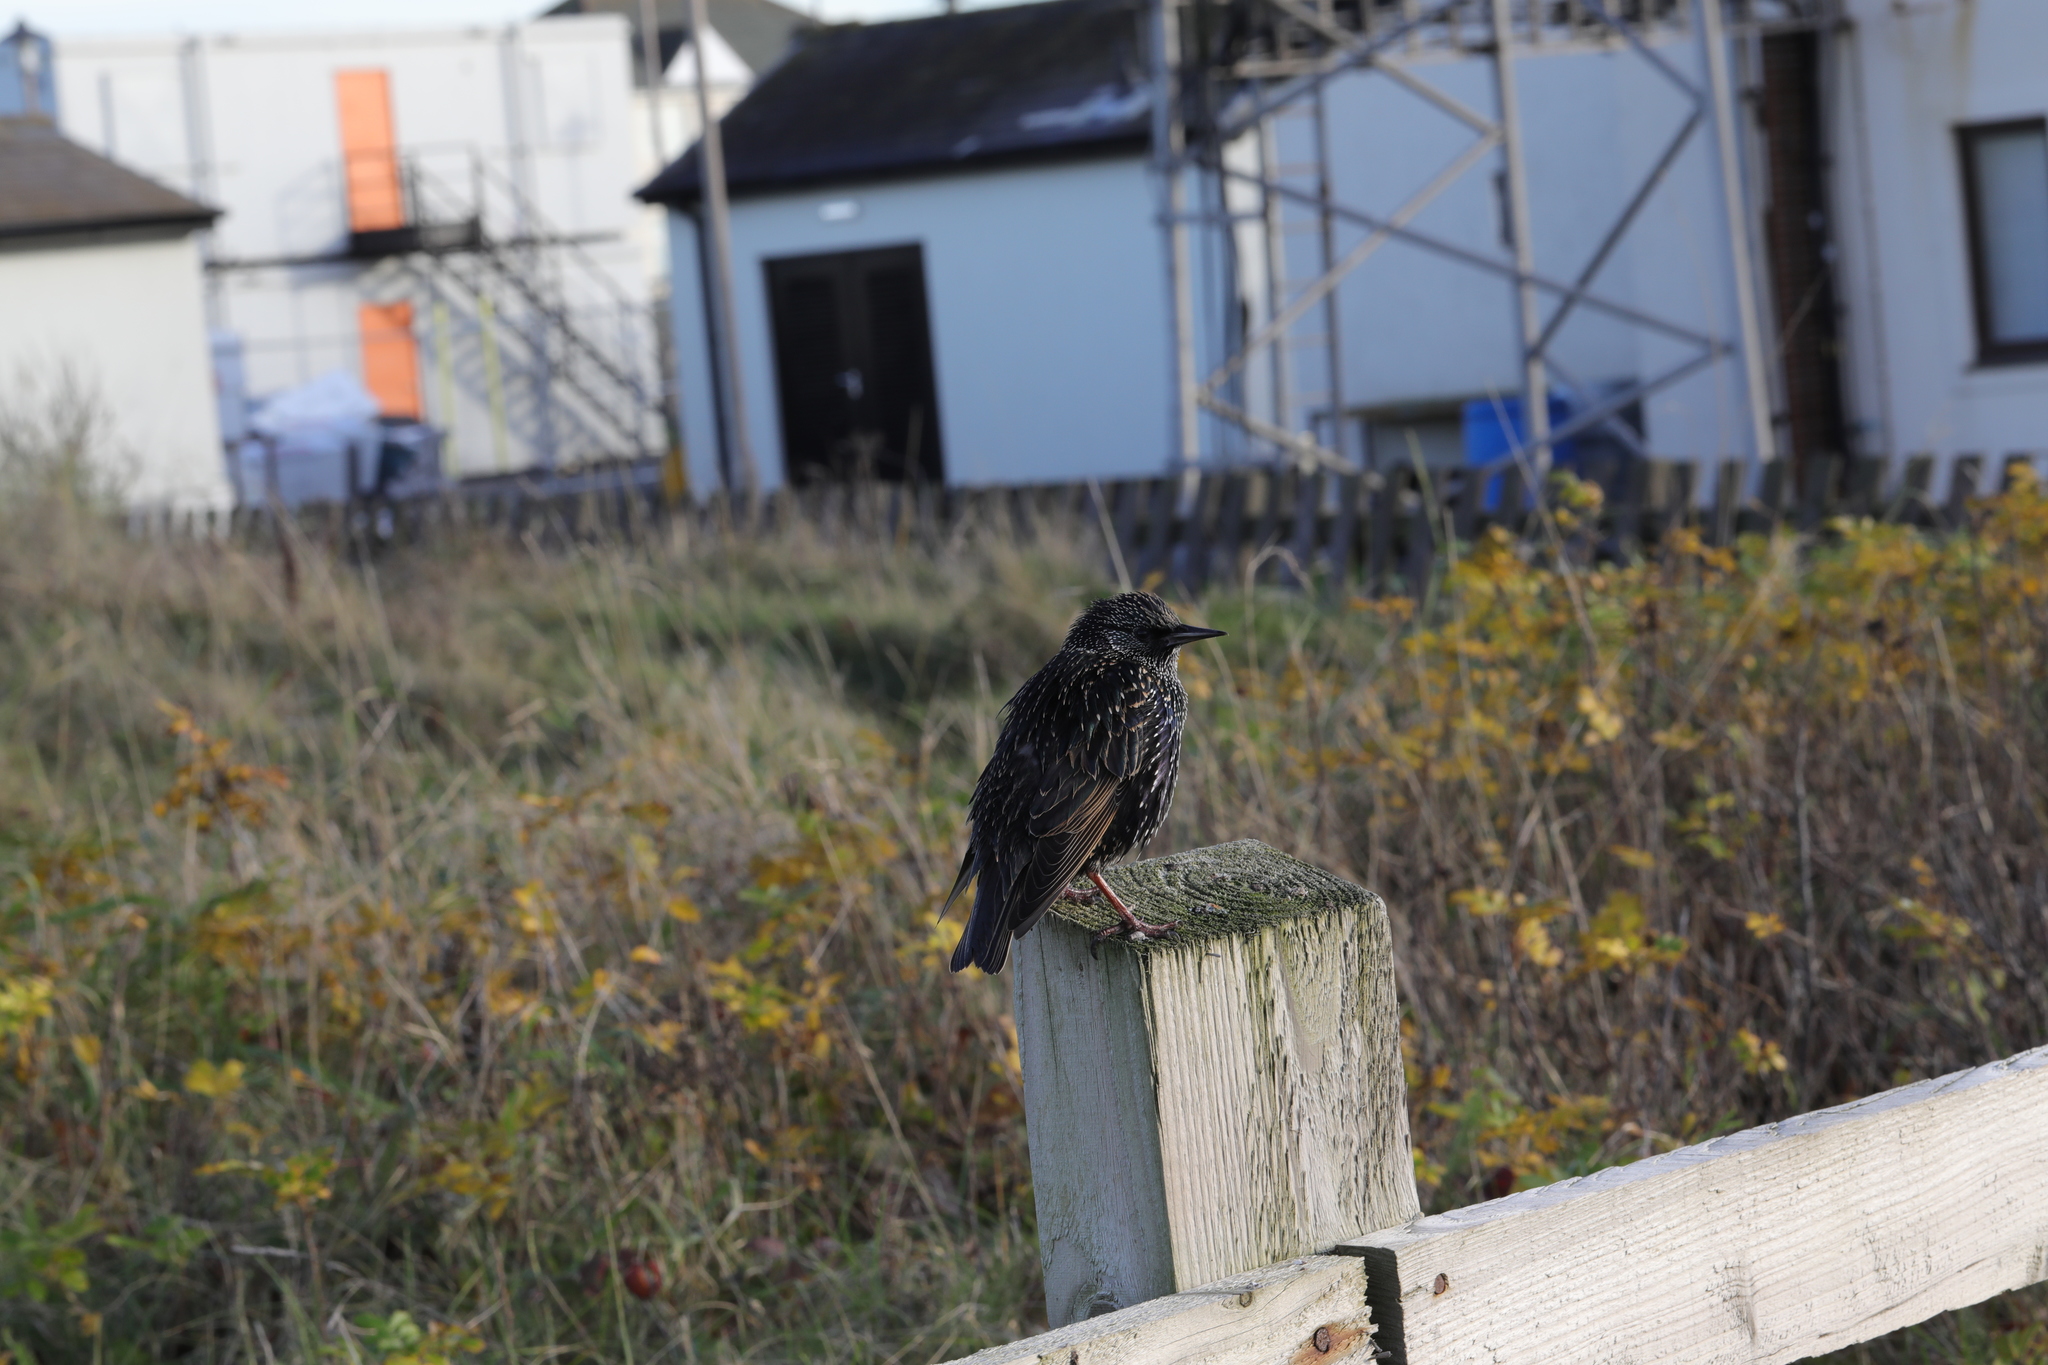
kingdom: Animalia
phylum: Chordata
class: Aves
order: Passeriformes
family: Sturnidae
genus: Sturnus
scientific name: Sturnus vulgaris
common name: Common starling
